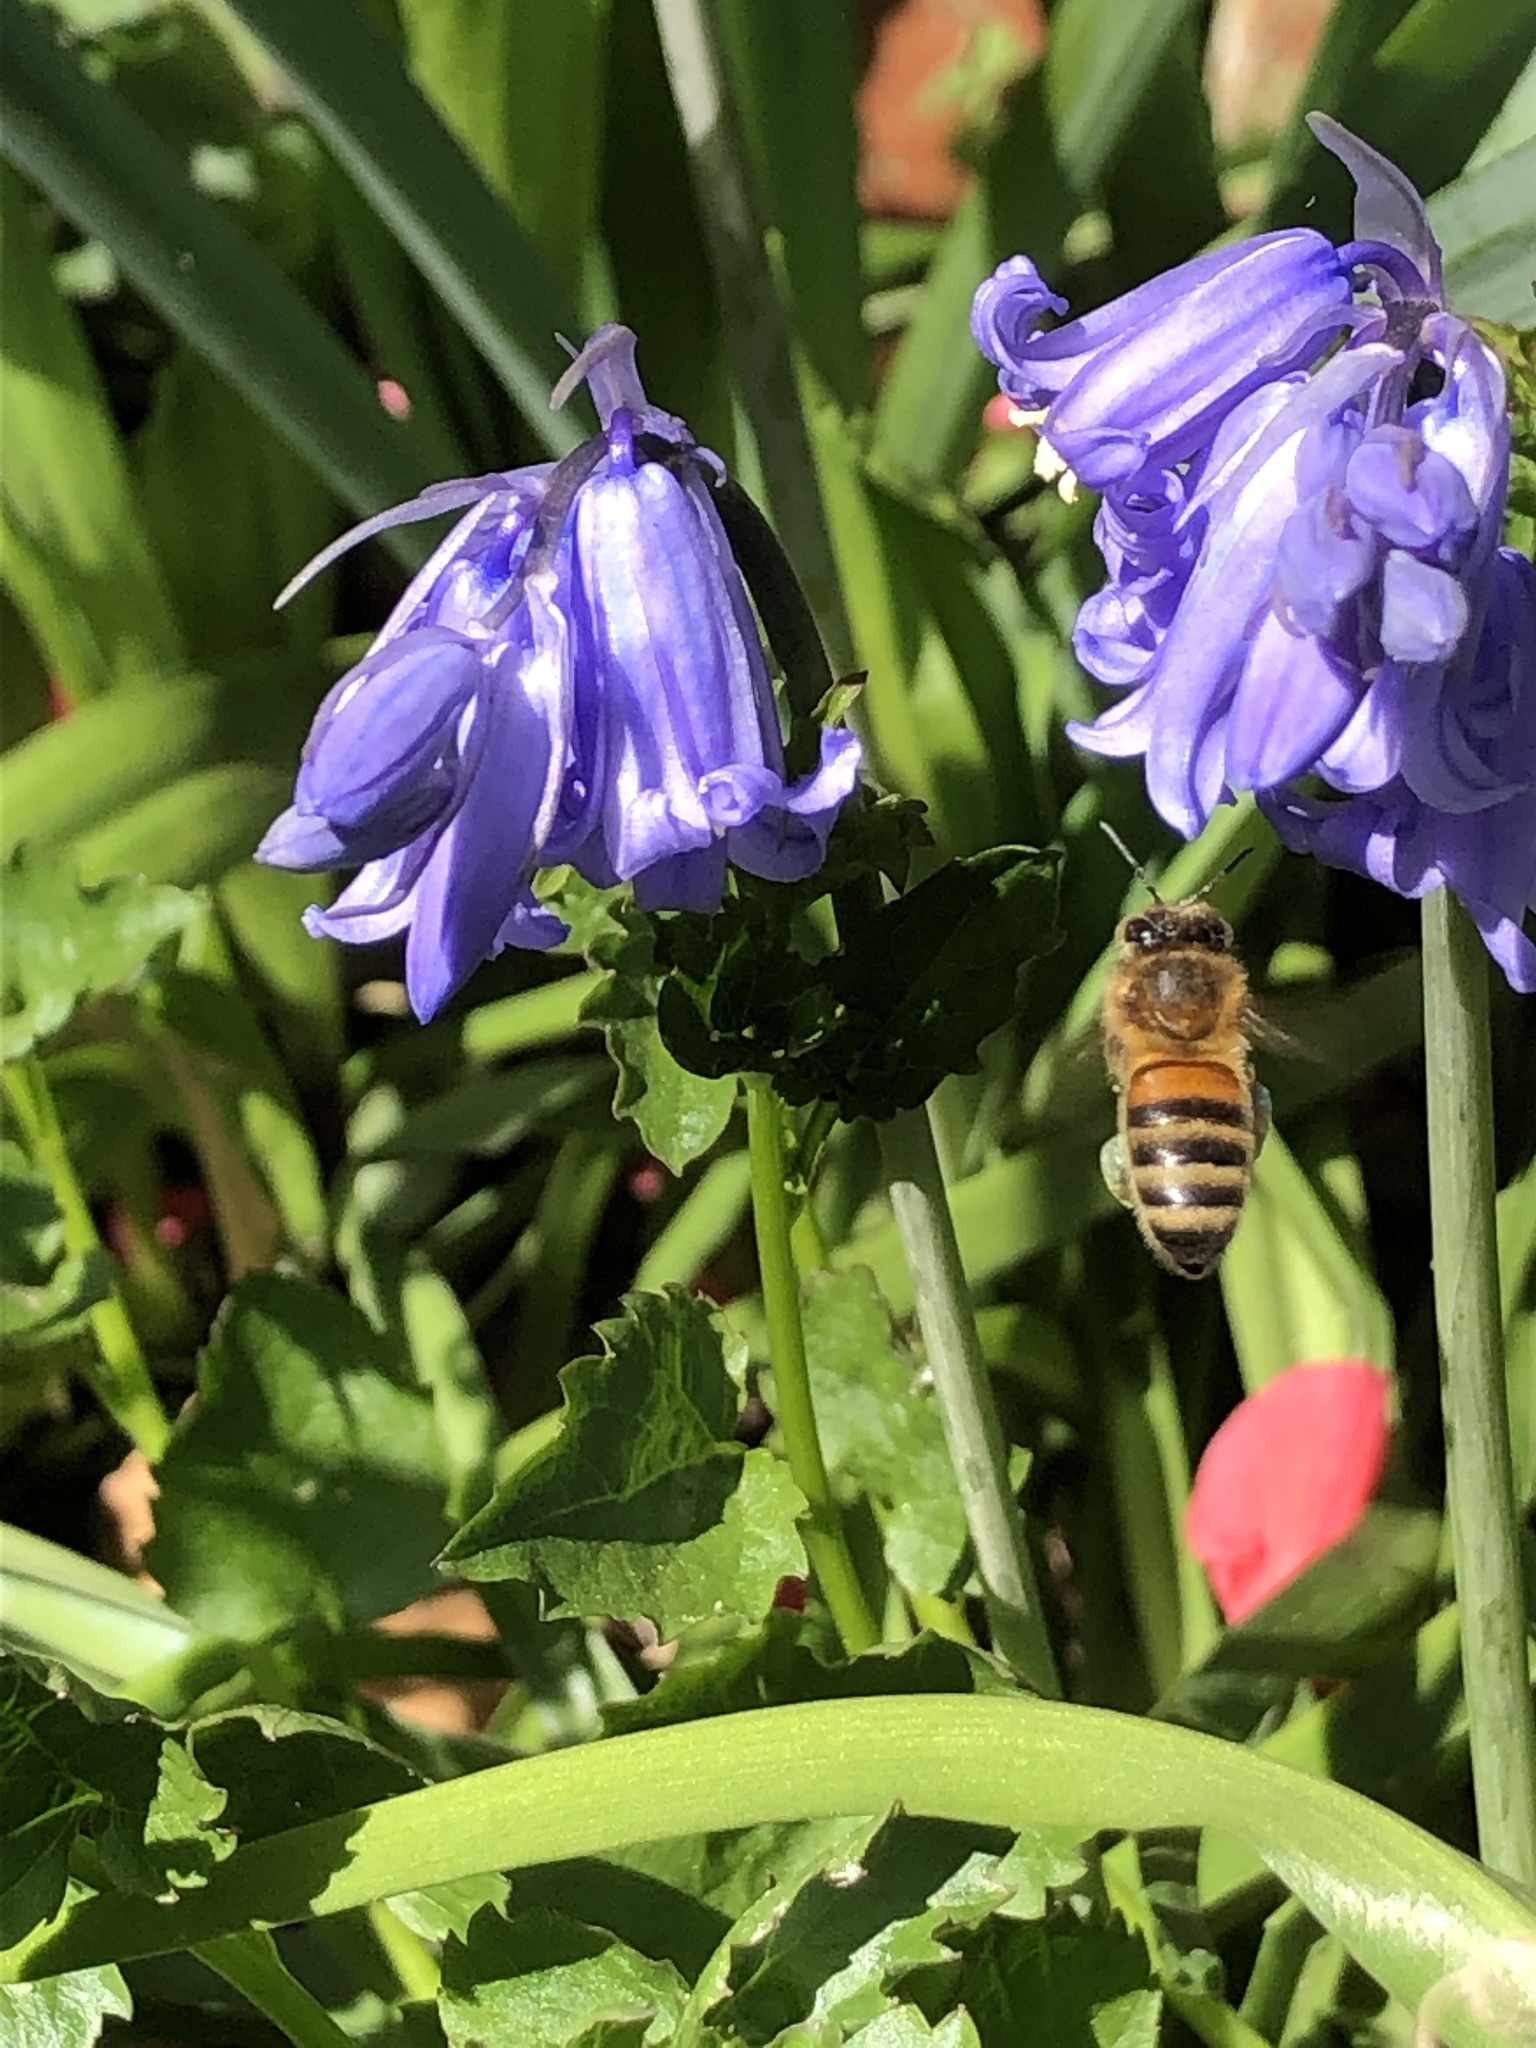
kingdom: Animalia
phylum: Arthropoda
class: Insecta
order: Hymenoptera
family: Apidae
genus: Apis
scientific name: Apis mellifera
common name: Honey bee
